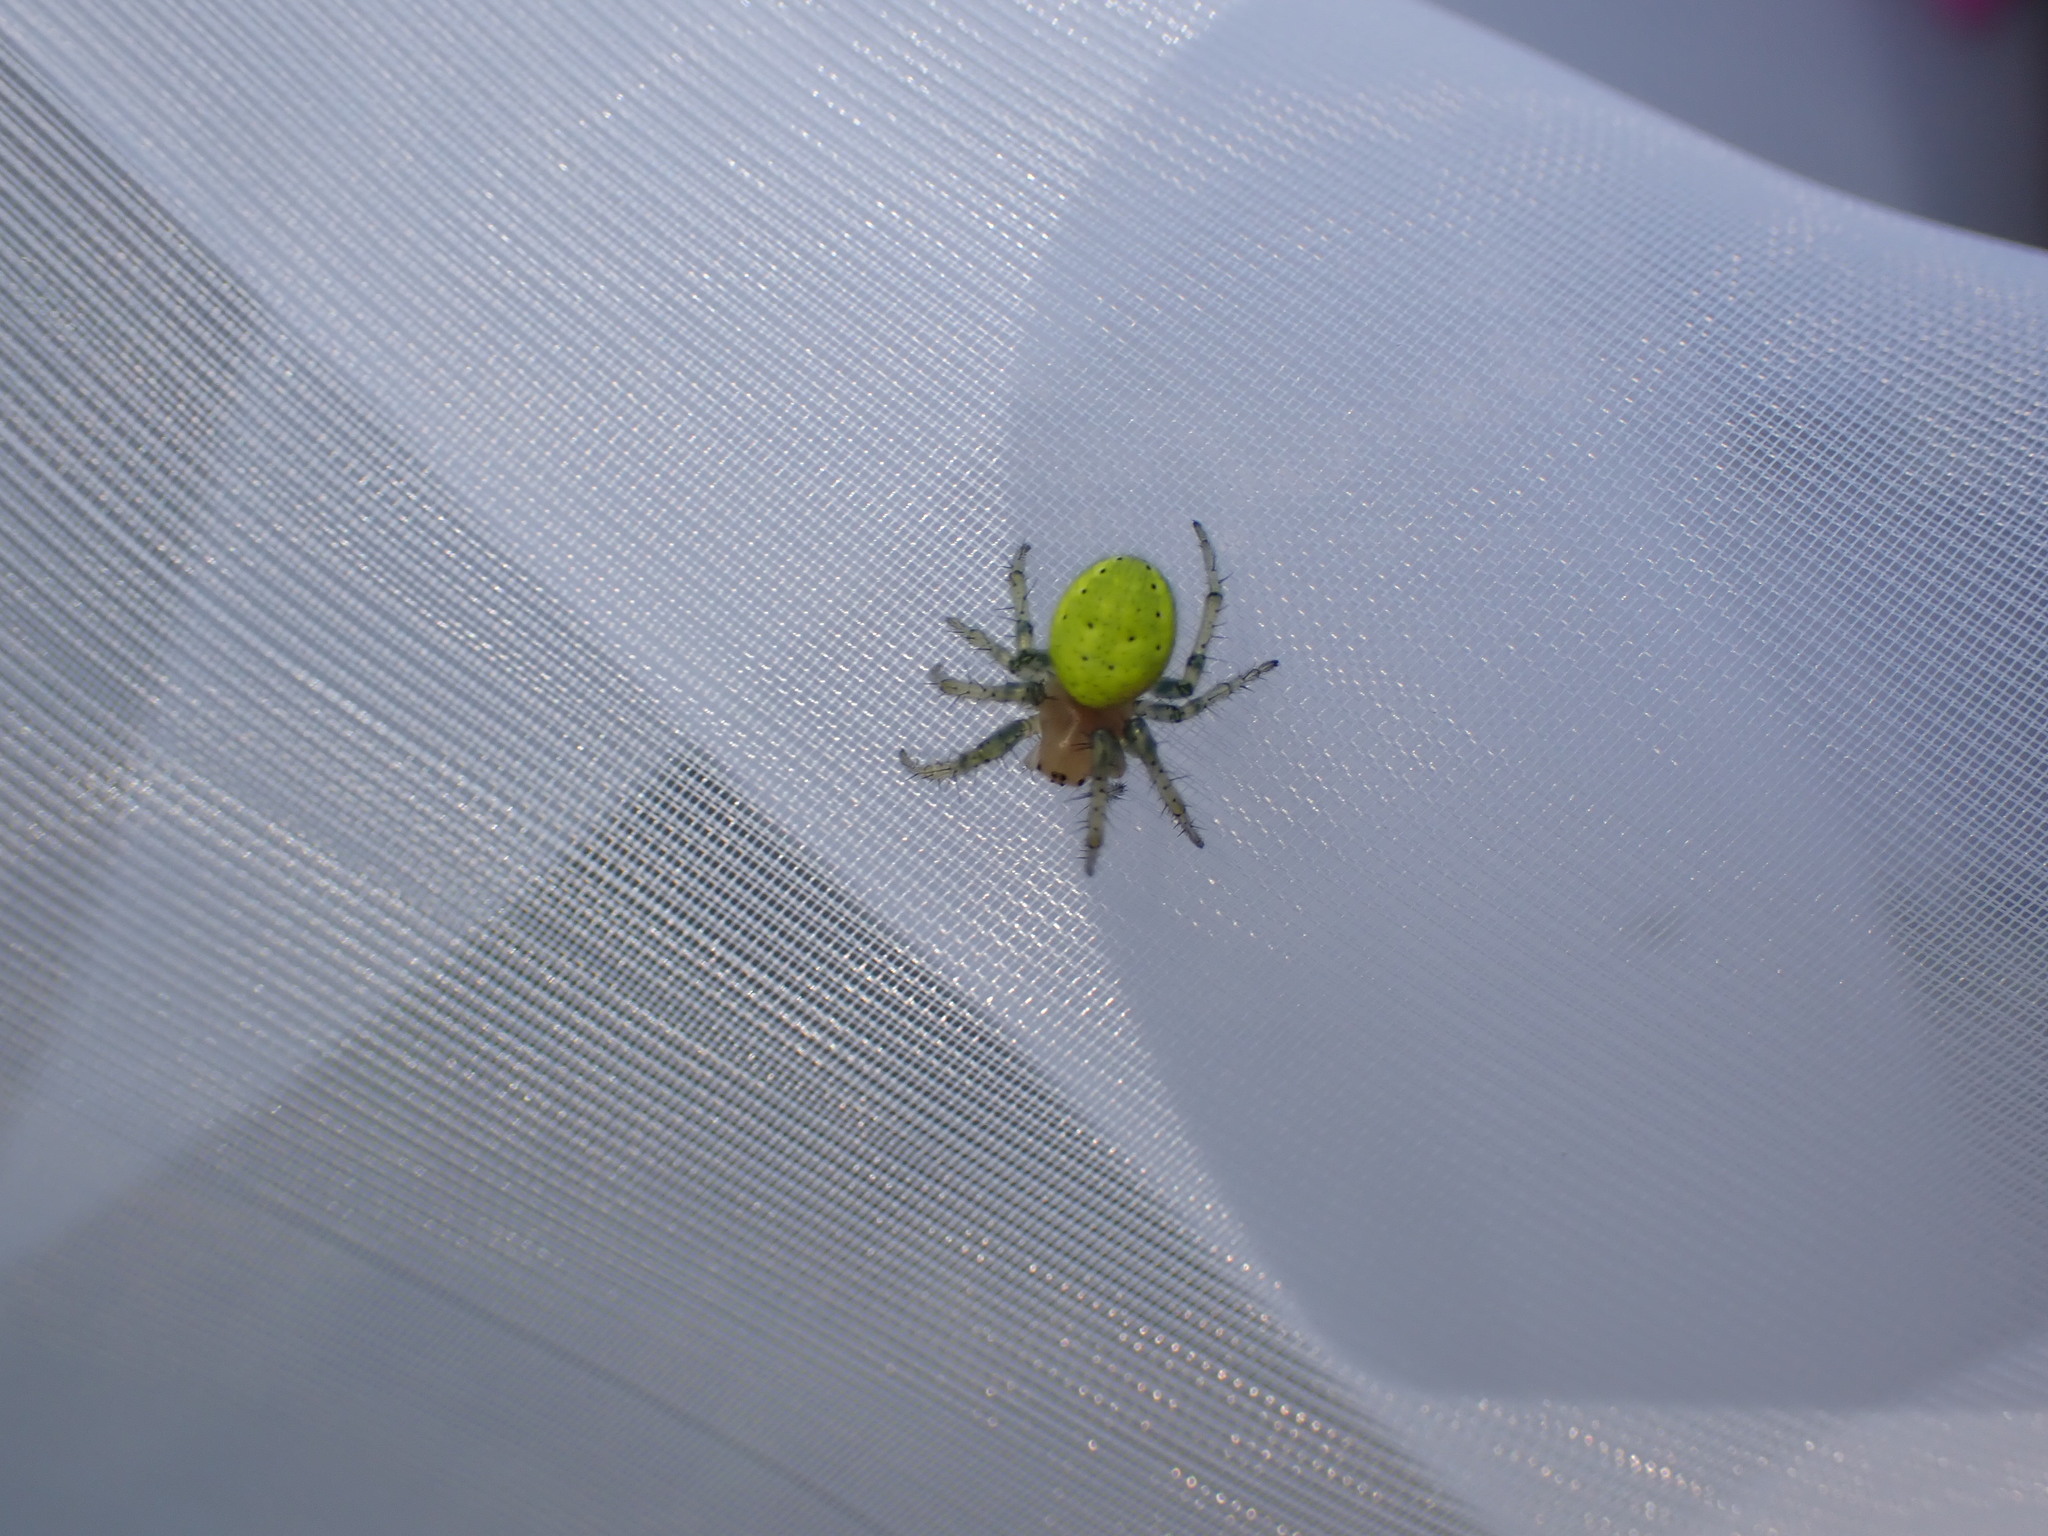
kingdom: Animalia
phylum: Arthropoda
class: Arachnida
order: Araneae
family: Araneidae
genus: Araniella
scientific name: Araniella
